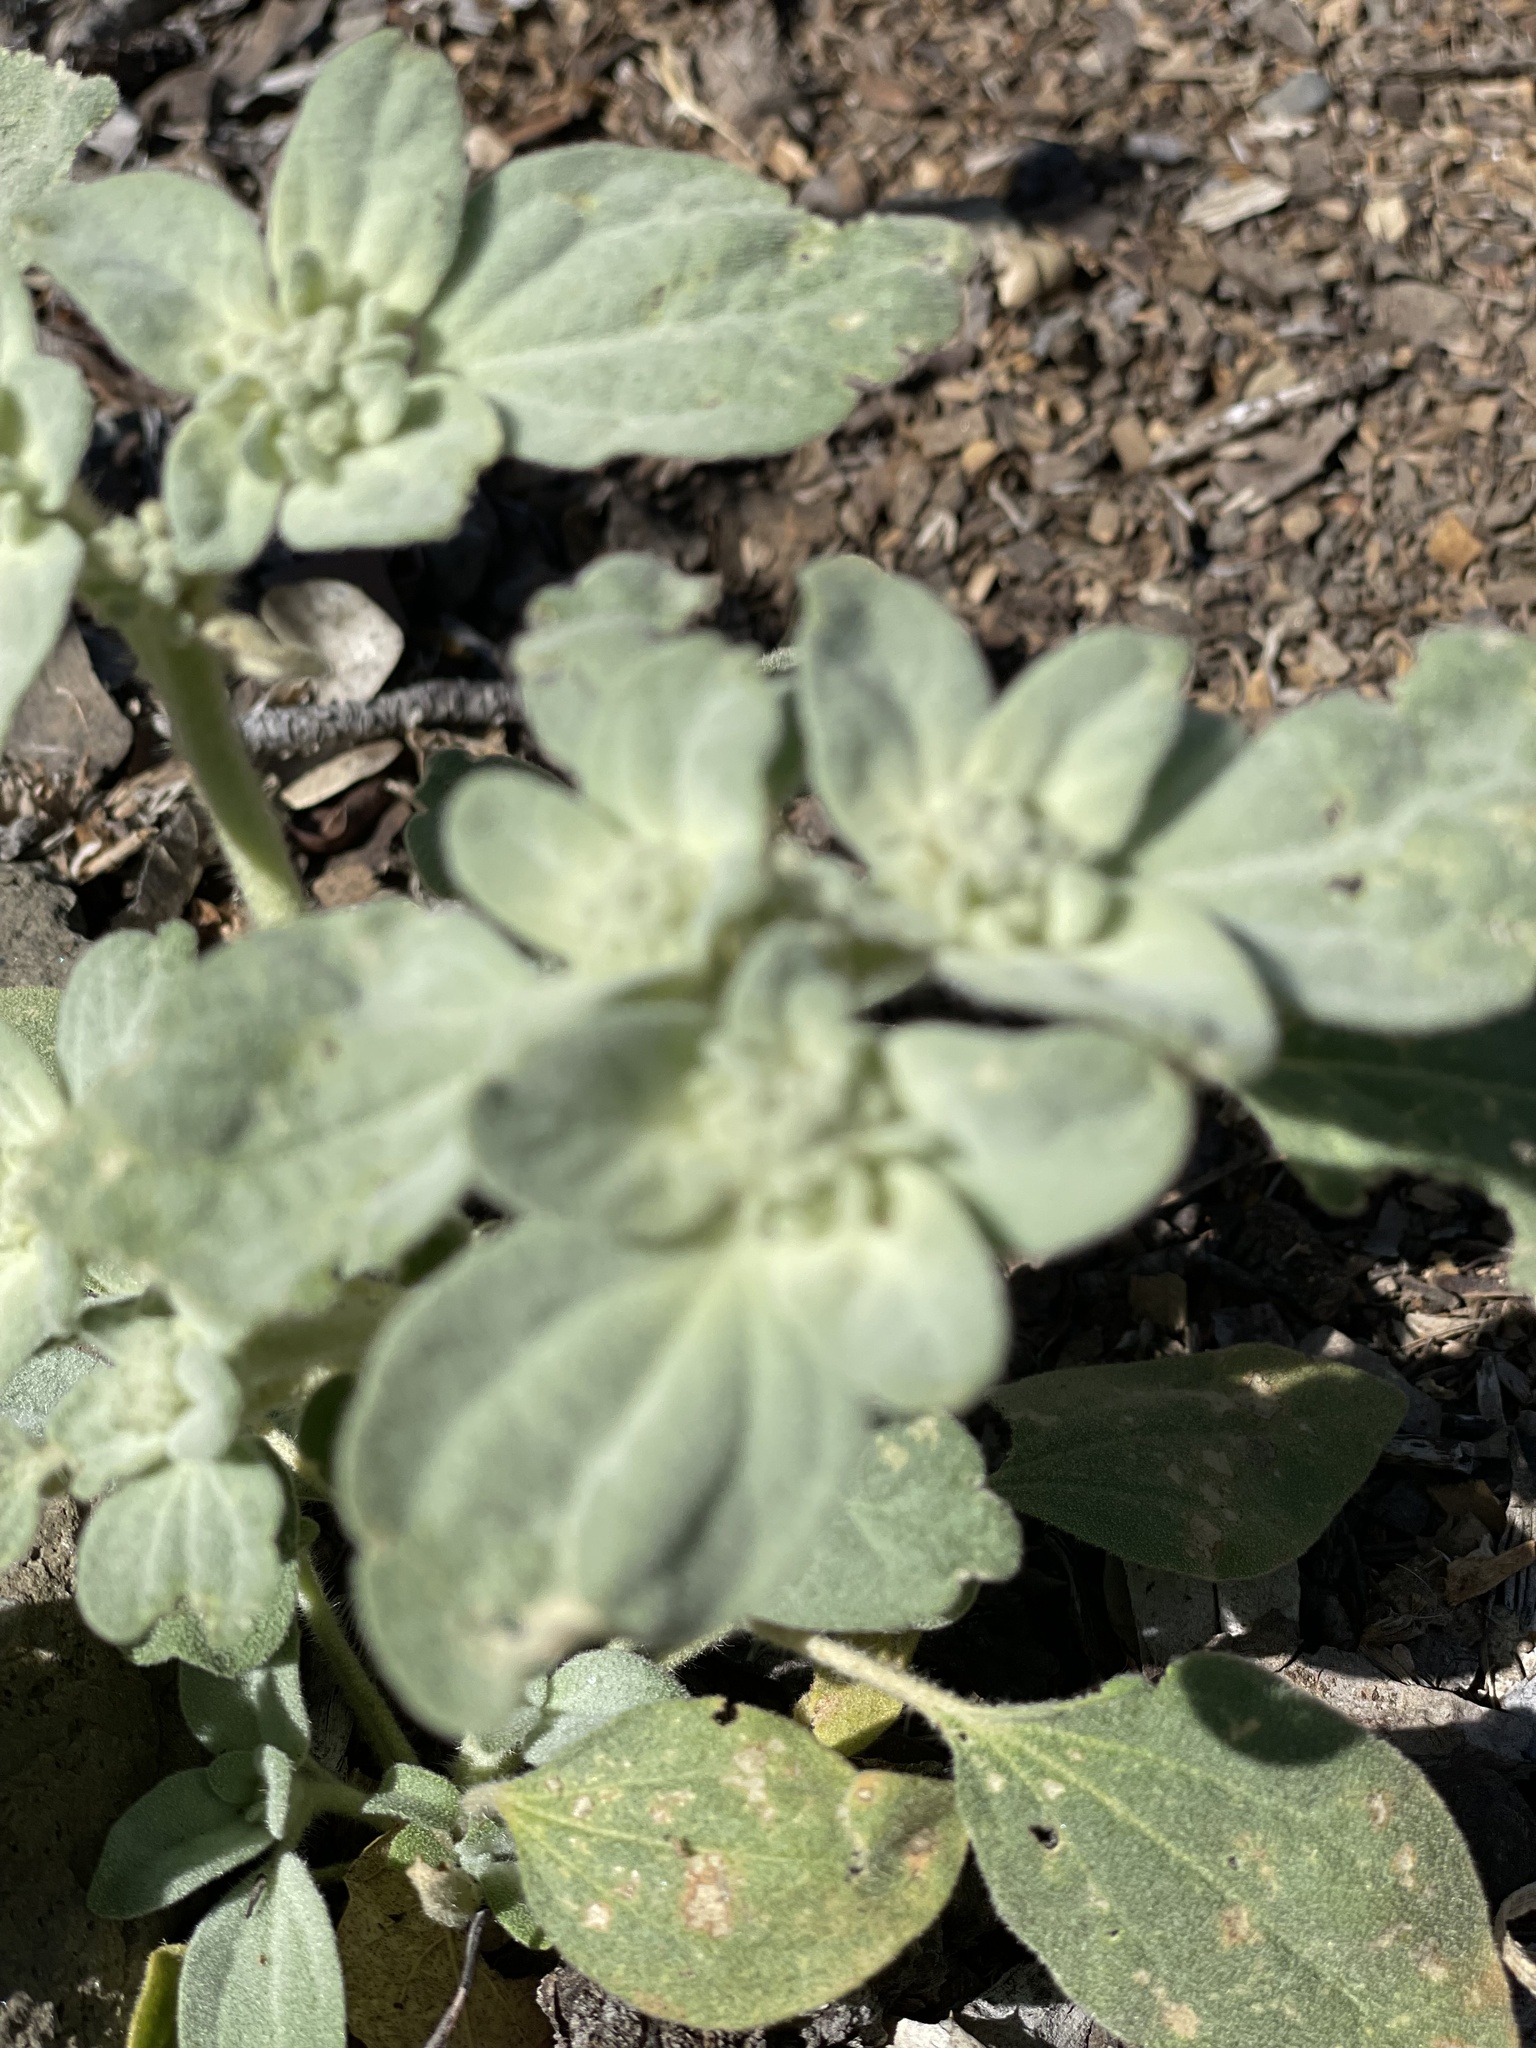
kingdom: Plantae
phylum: Tracheophyta
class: Magnoliopsida
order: Malpighiales
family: Euphorbiaceae
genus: Croton
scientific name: Croton setiger
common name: Dove weed
